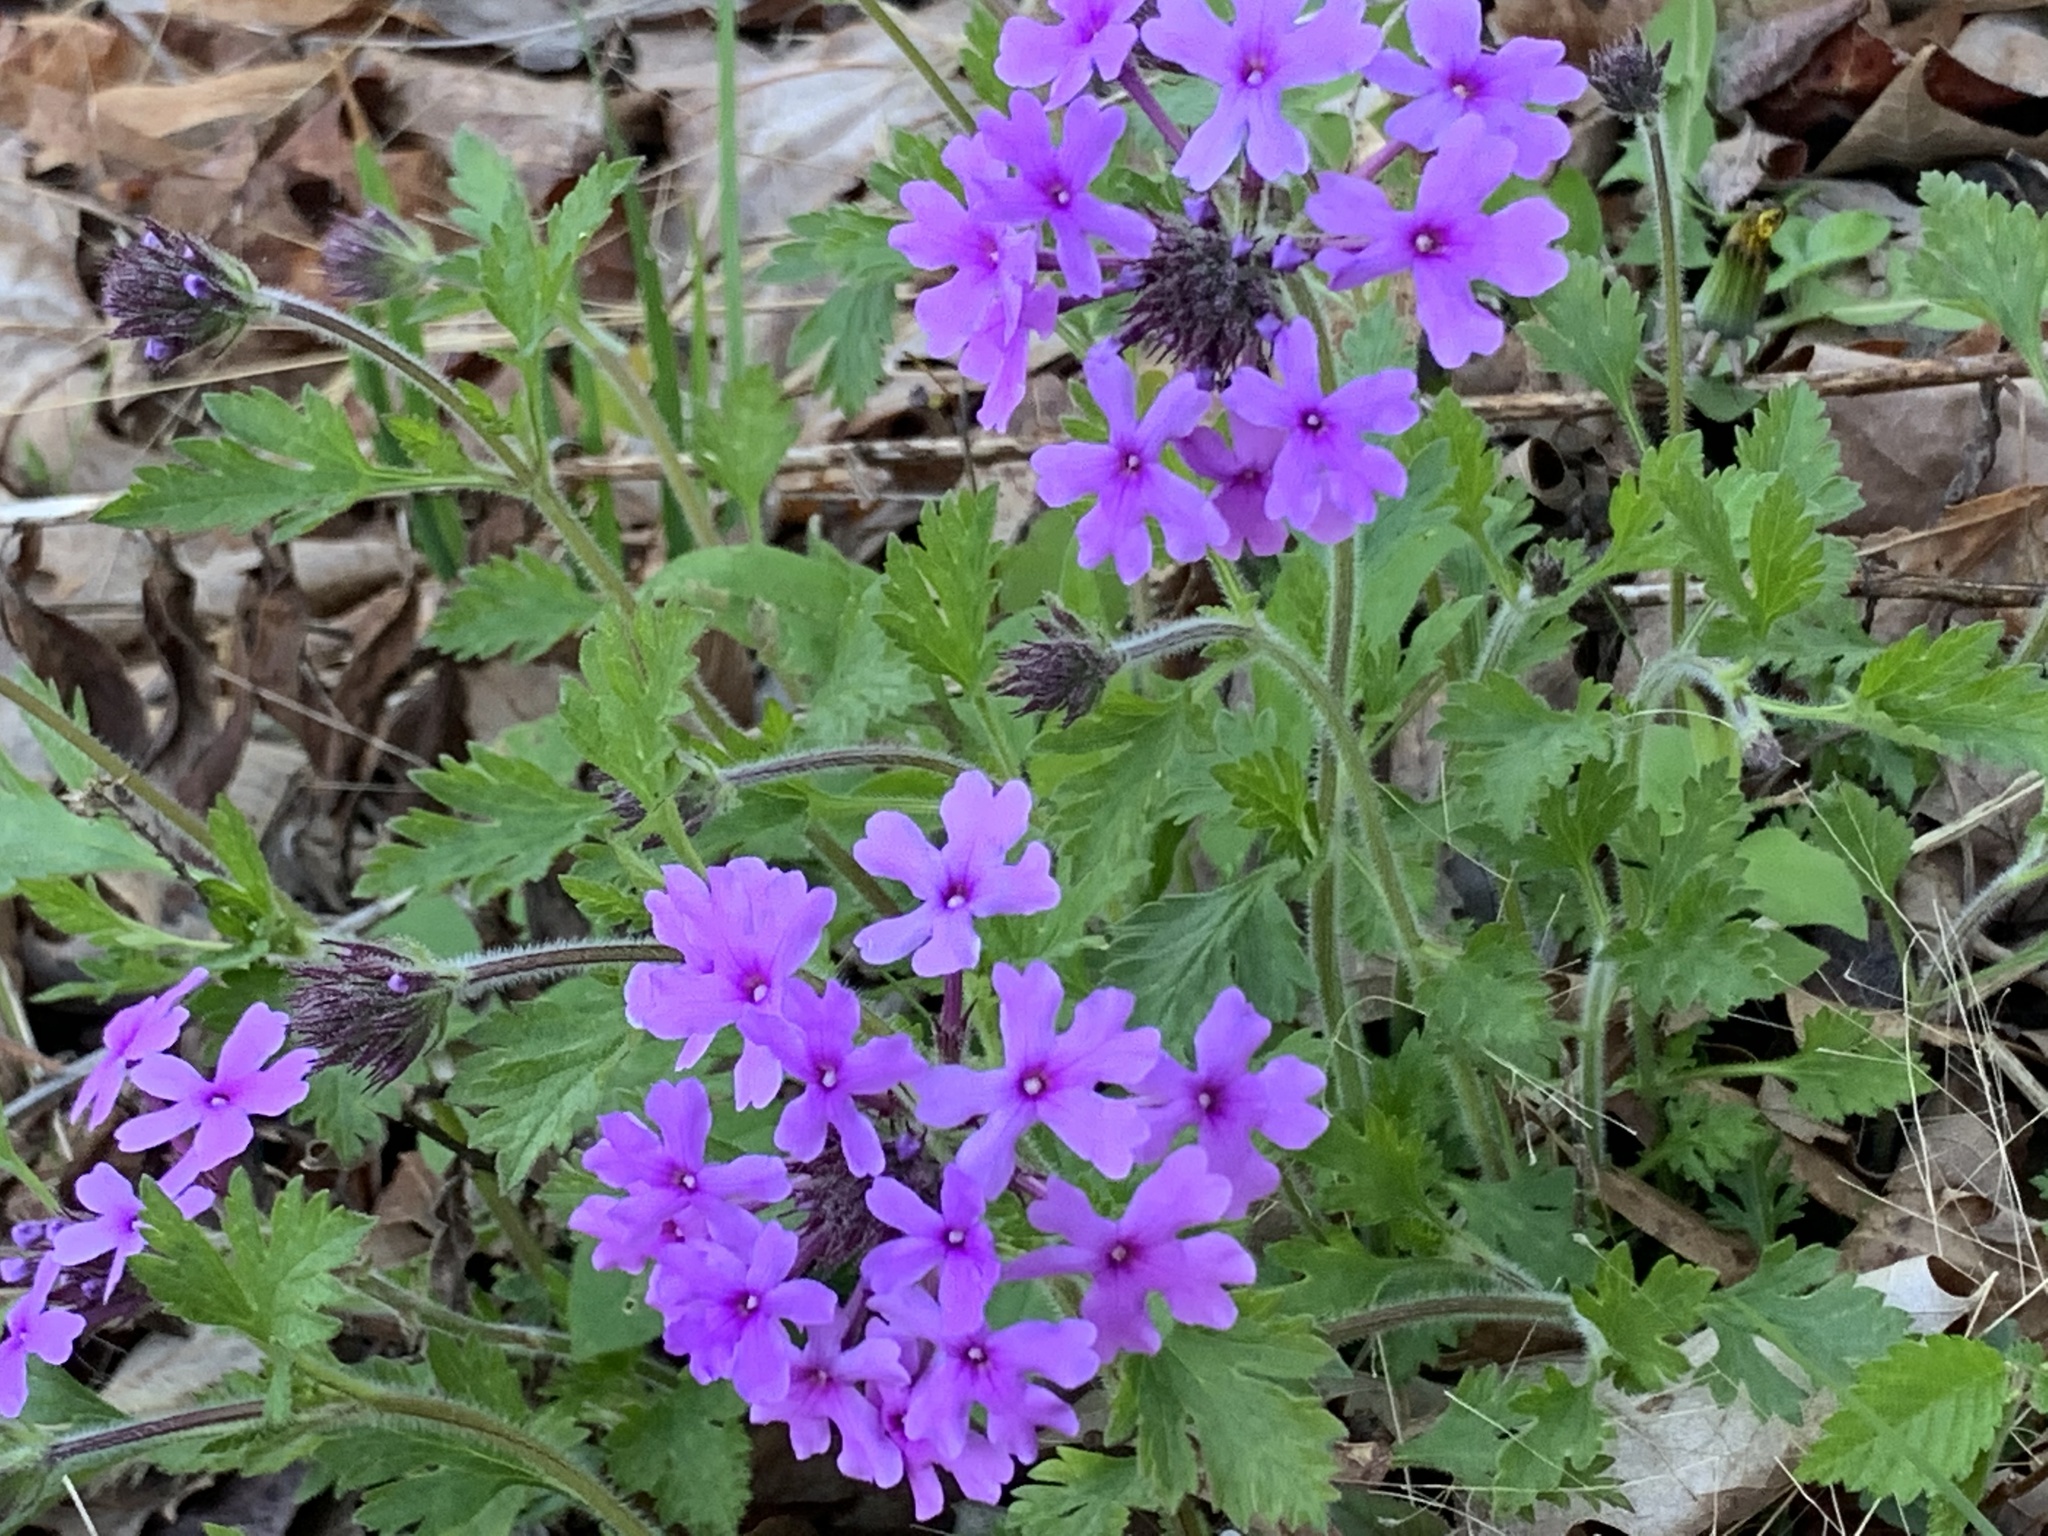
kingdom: Plantae
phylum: Tracheophyta
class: Magnoliopsida
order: Lamiales
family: Verbenaceae
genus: Verbena
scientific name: Verbena canadensis
